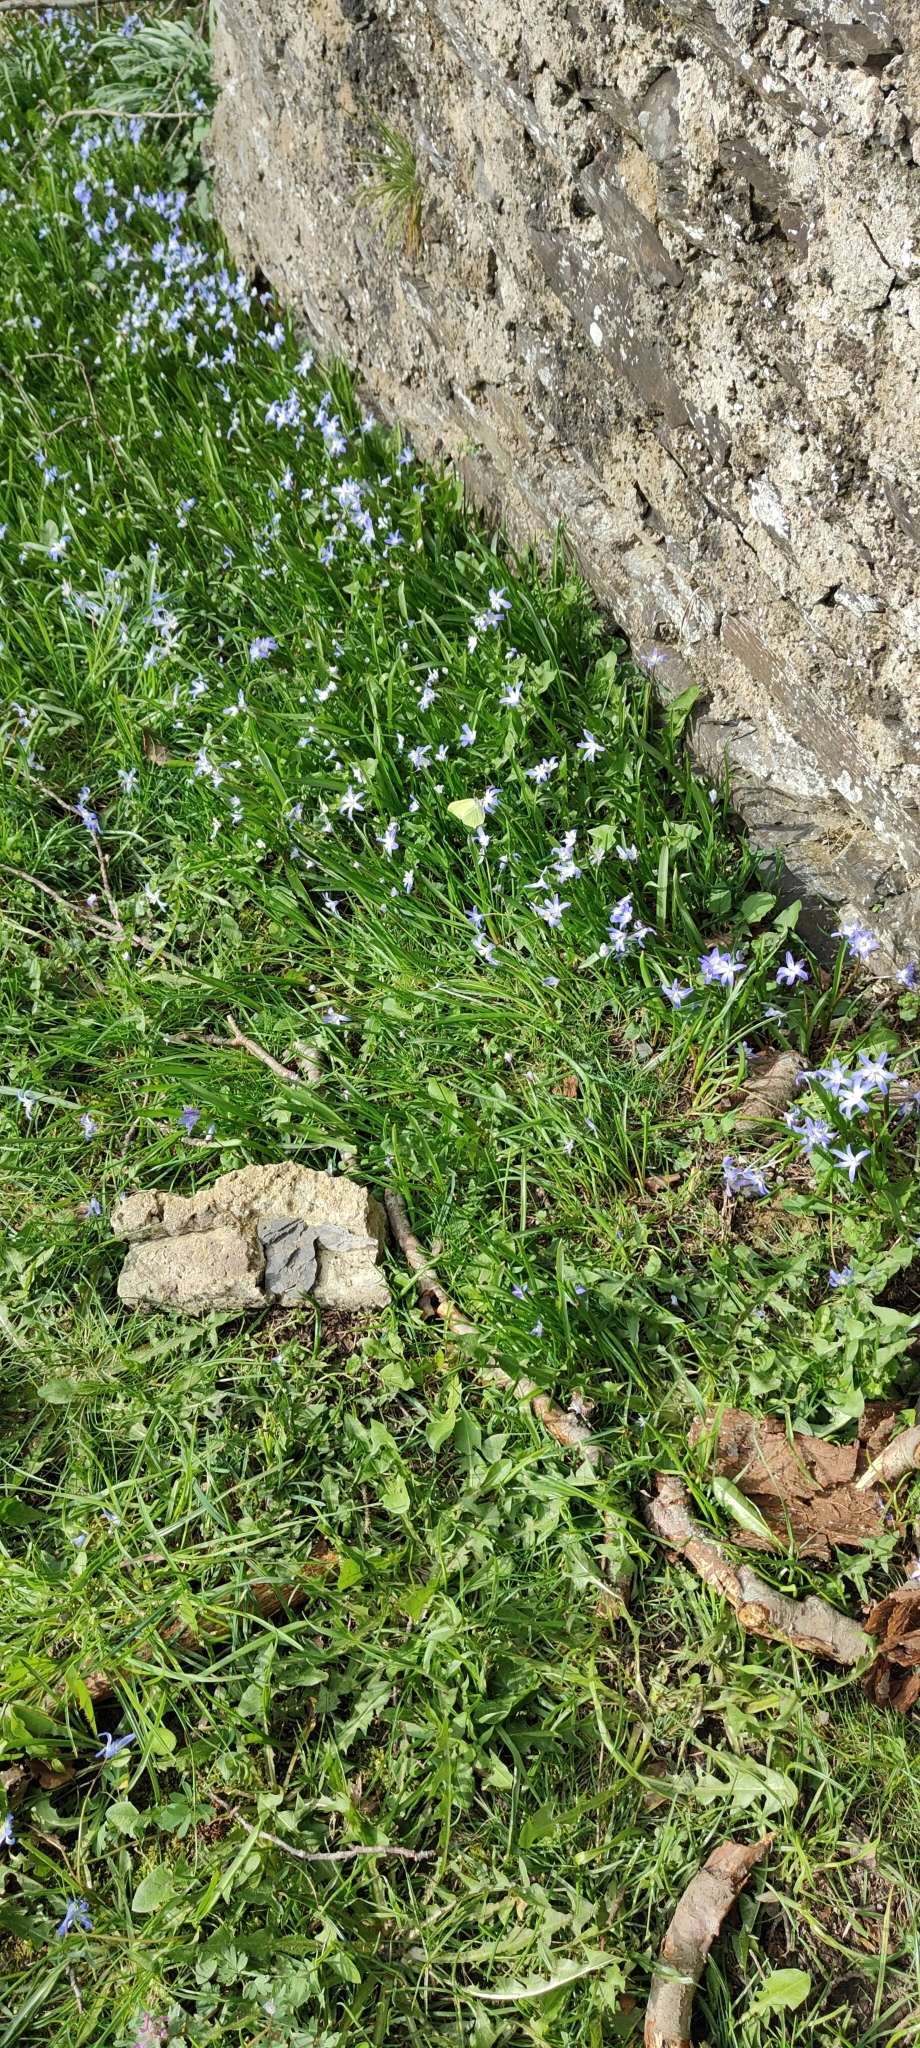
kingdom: Animalia
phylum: Arthropoda
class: Insecta
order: Lepidoptera
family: Pieridae
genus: Gonepteryx
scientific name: Gonepteryx rhamni
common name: Brimstone
